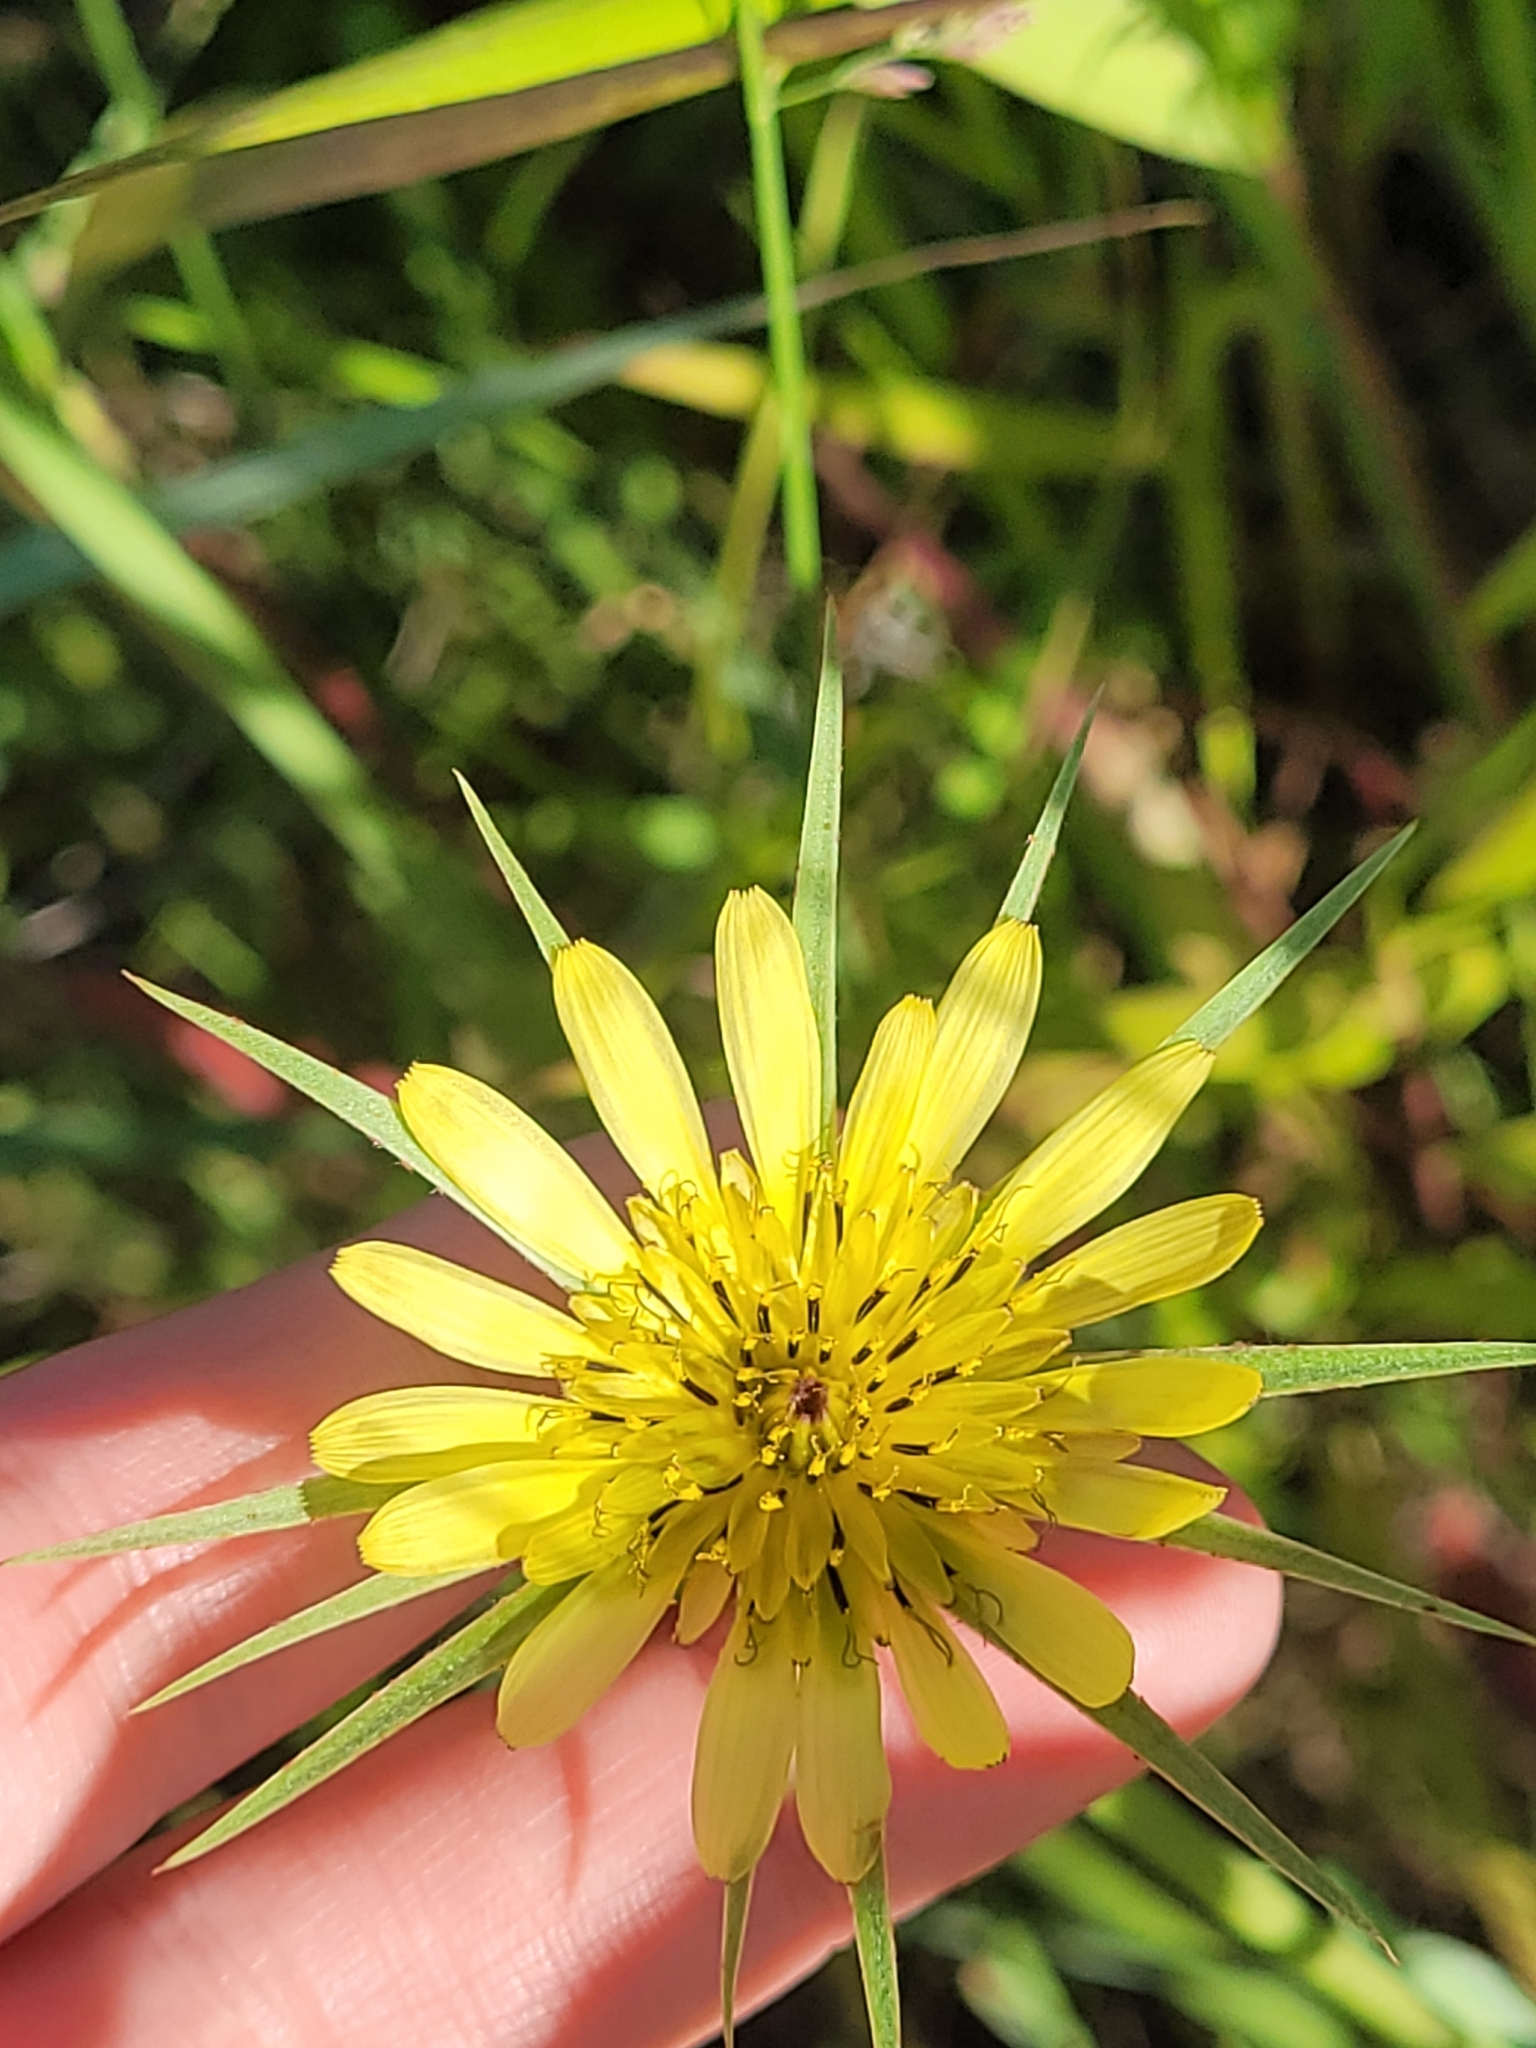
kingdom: Plantae
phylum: Tracheophyta
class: Magnoliopsida
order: Asterales
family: Asteraceae
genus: Tragopogon
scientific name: Tragopogon dubius
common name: Yellow salsify
